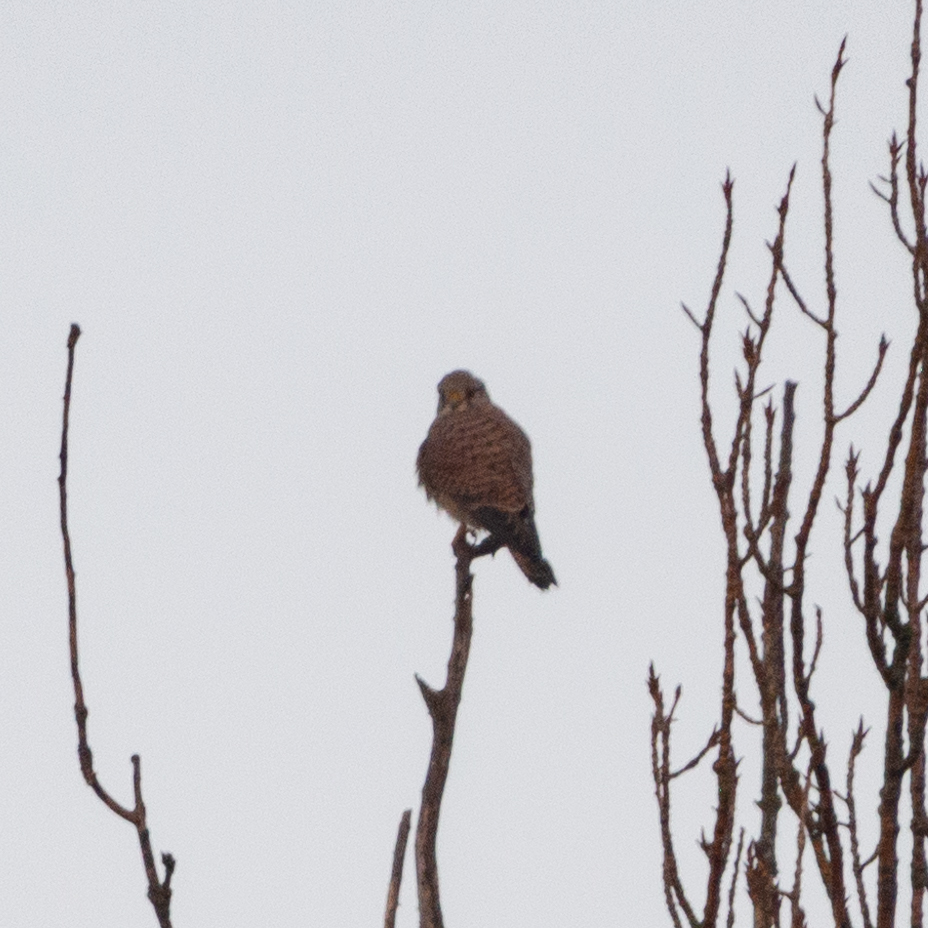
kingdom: Animalia
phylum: Chordata
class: Aves
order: Falconiformes
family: Falconidae
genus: Falco
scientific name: Falco tinnunculus
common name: Common kestrel
